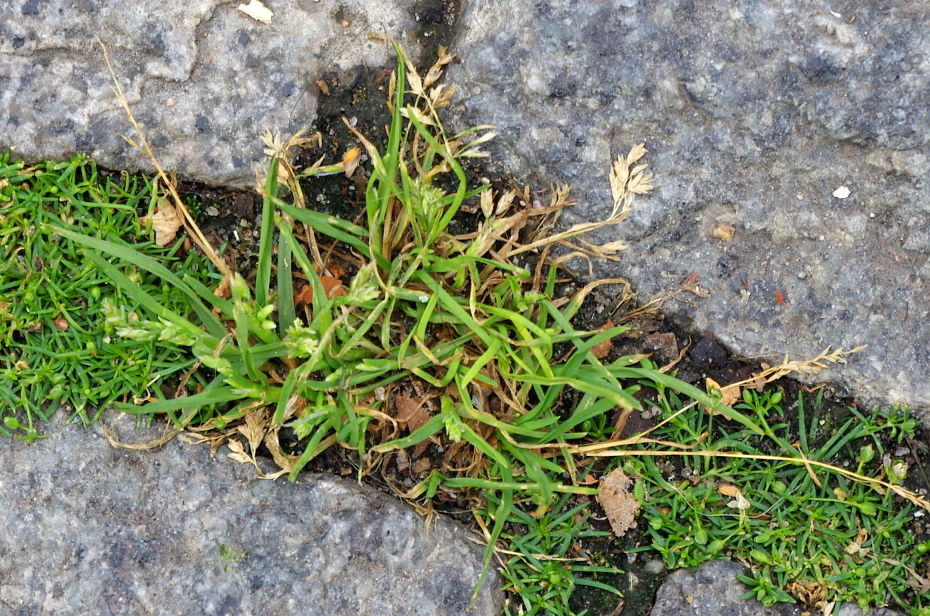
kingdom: Plantae
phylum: Tracheophyta
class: Liliopsida
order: Poales
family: Poaceae
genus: Poa
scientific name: Poa annua
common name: Annual bluegrass
